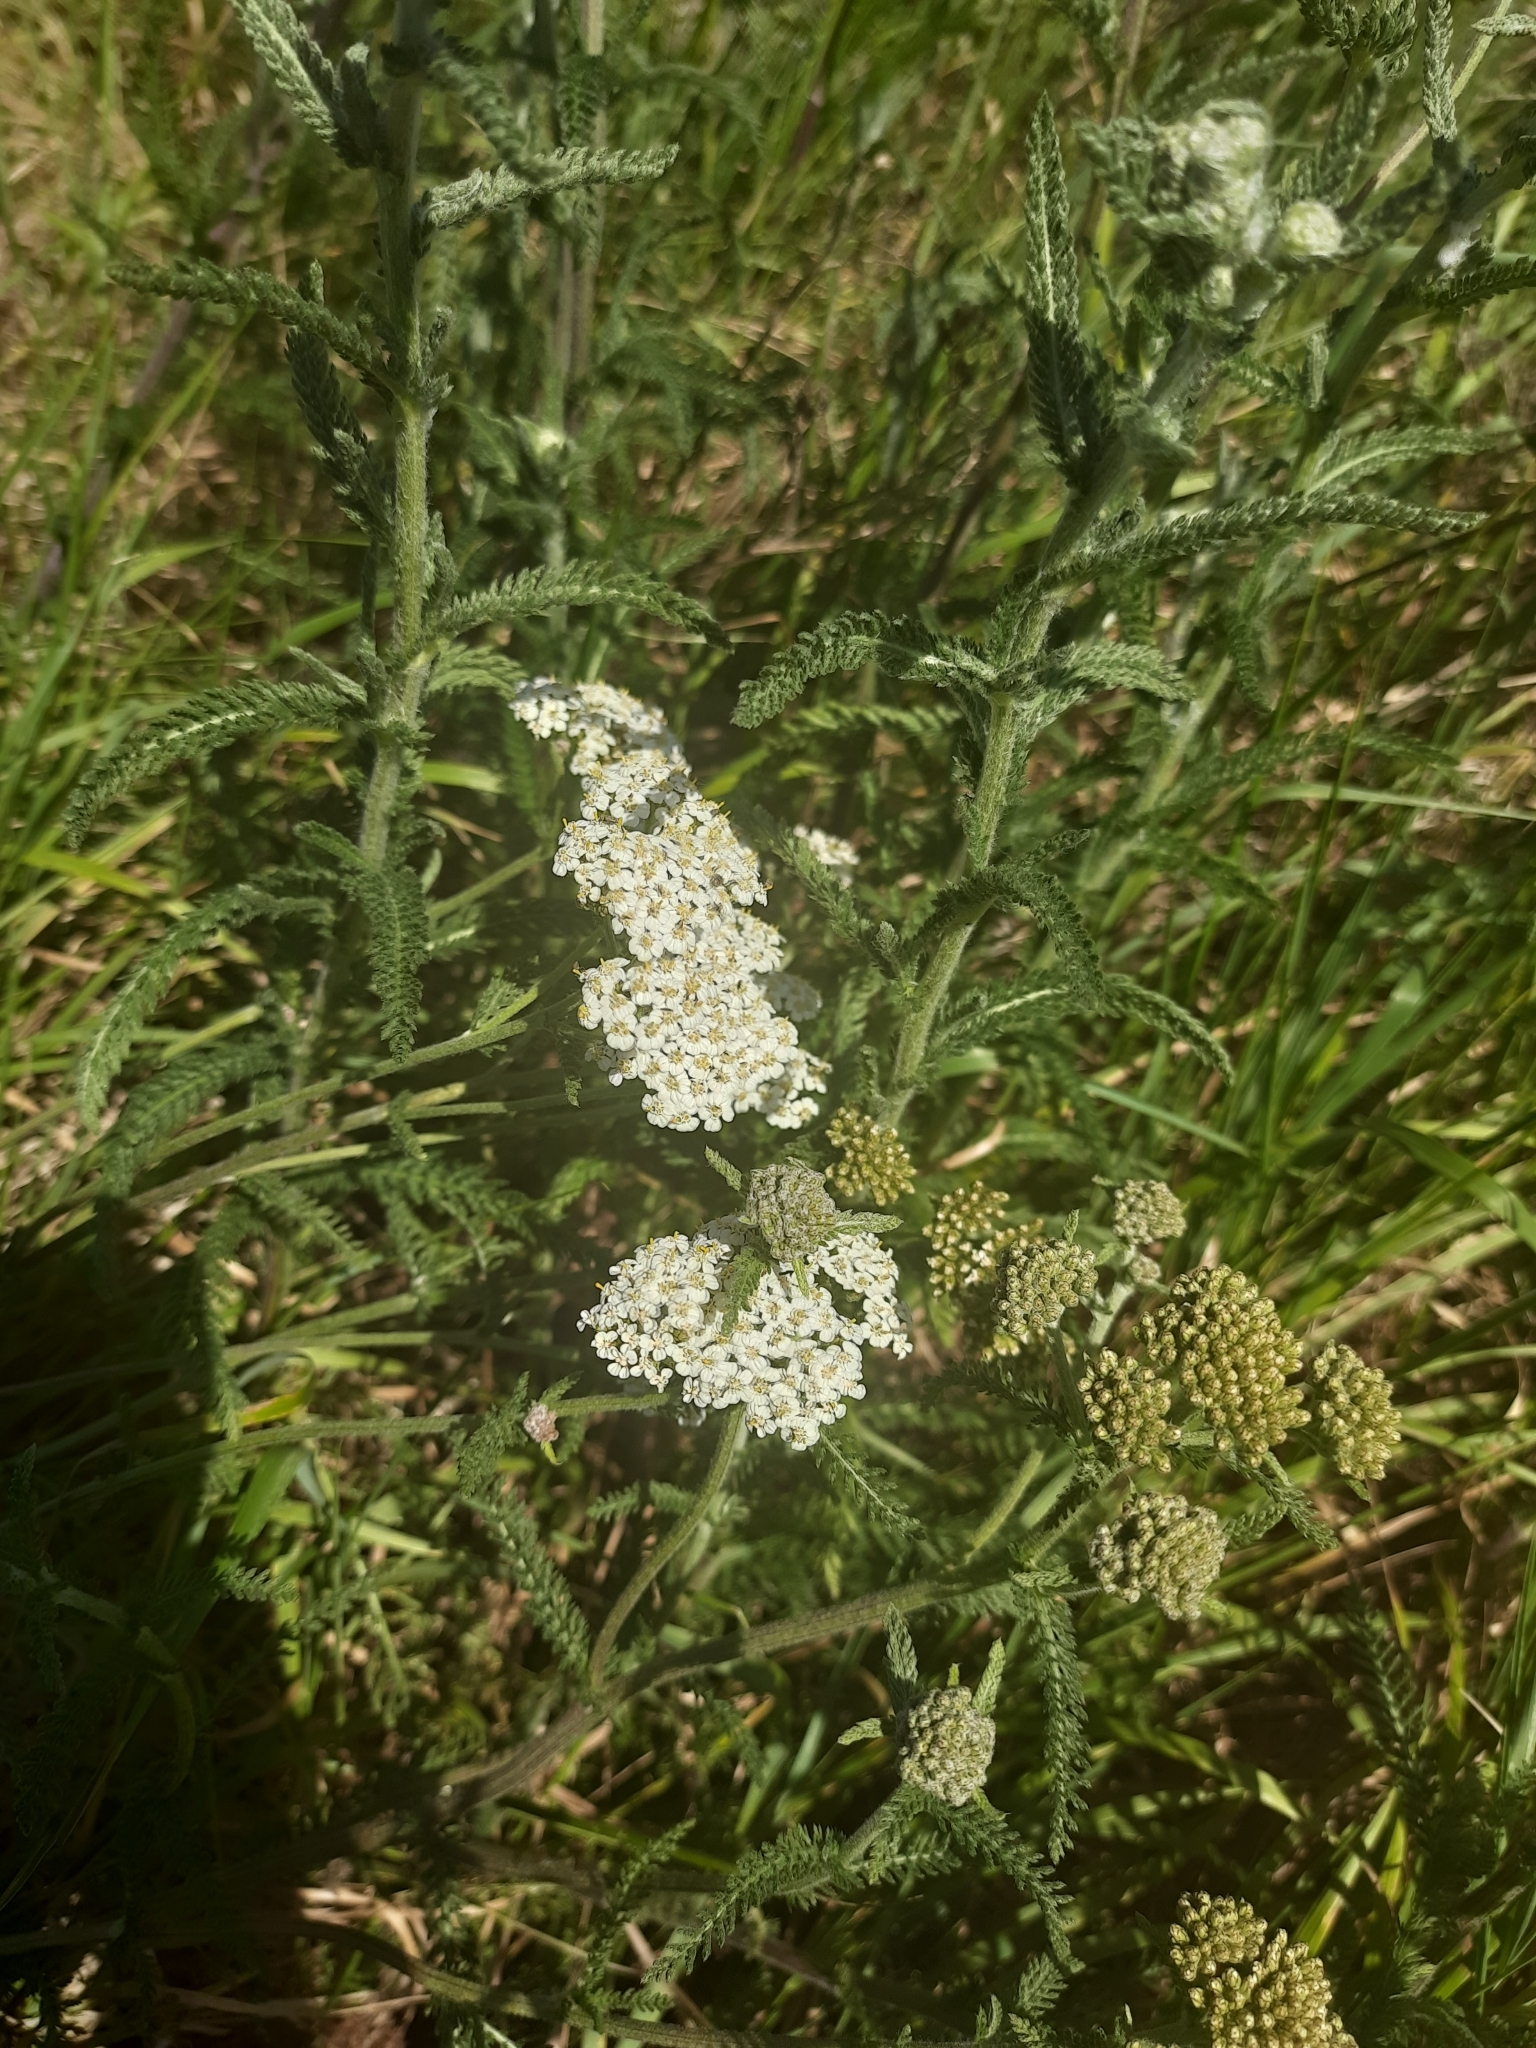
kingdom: Plantae
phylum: Tracheophyta
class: Magnoliopsida
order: Asterales
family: Asteraceae
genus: Achillea
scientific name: Achillea millefolium
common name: Yarrow
